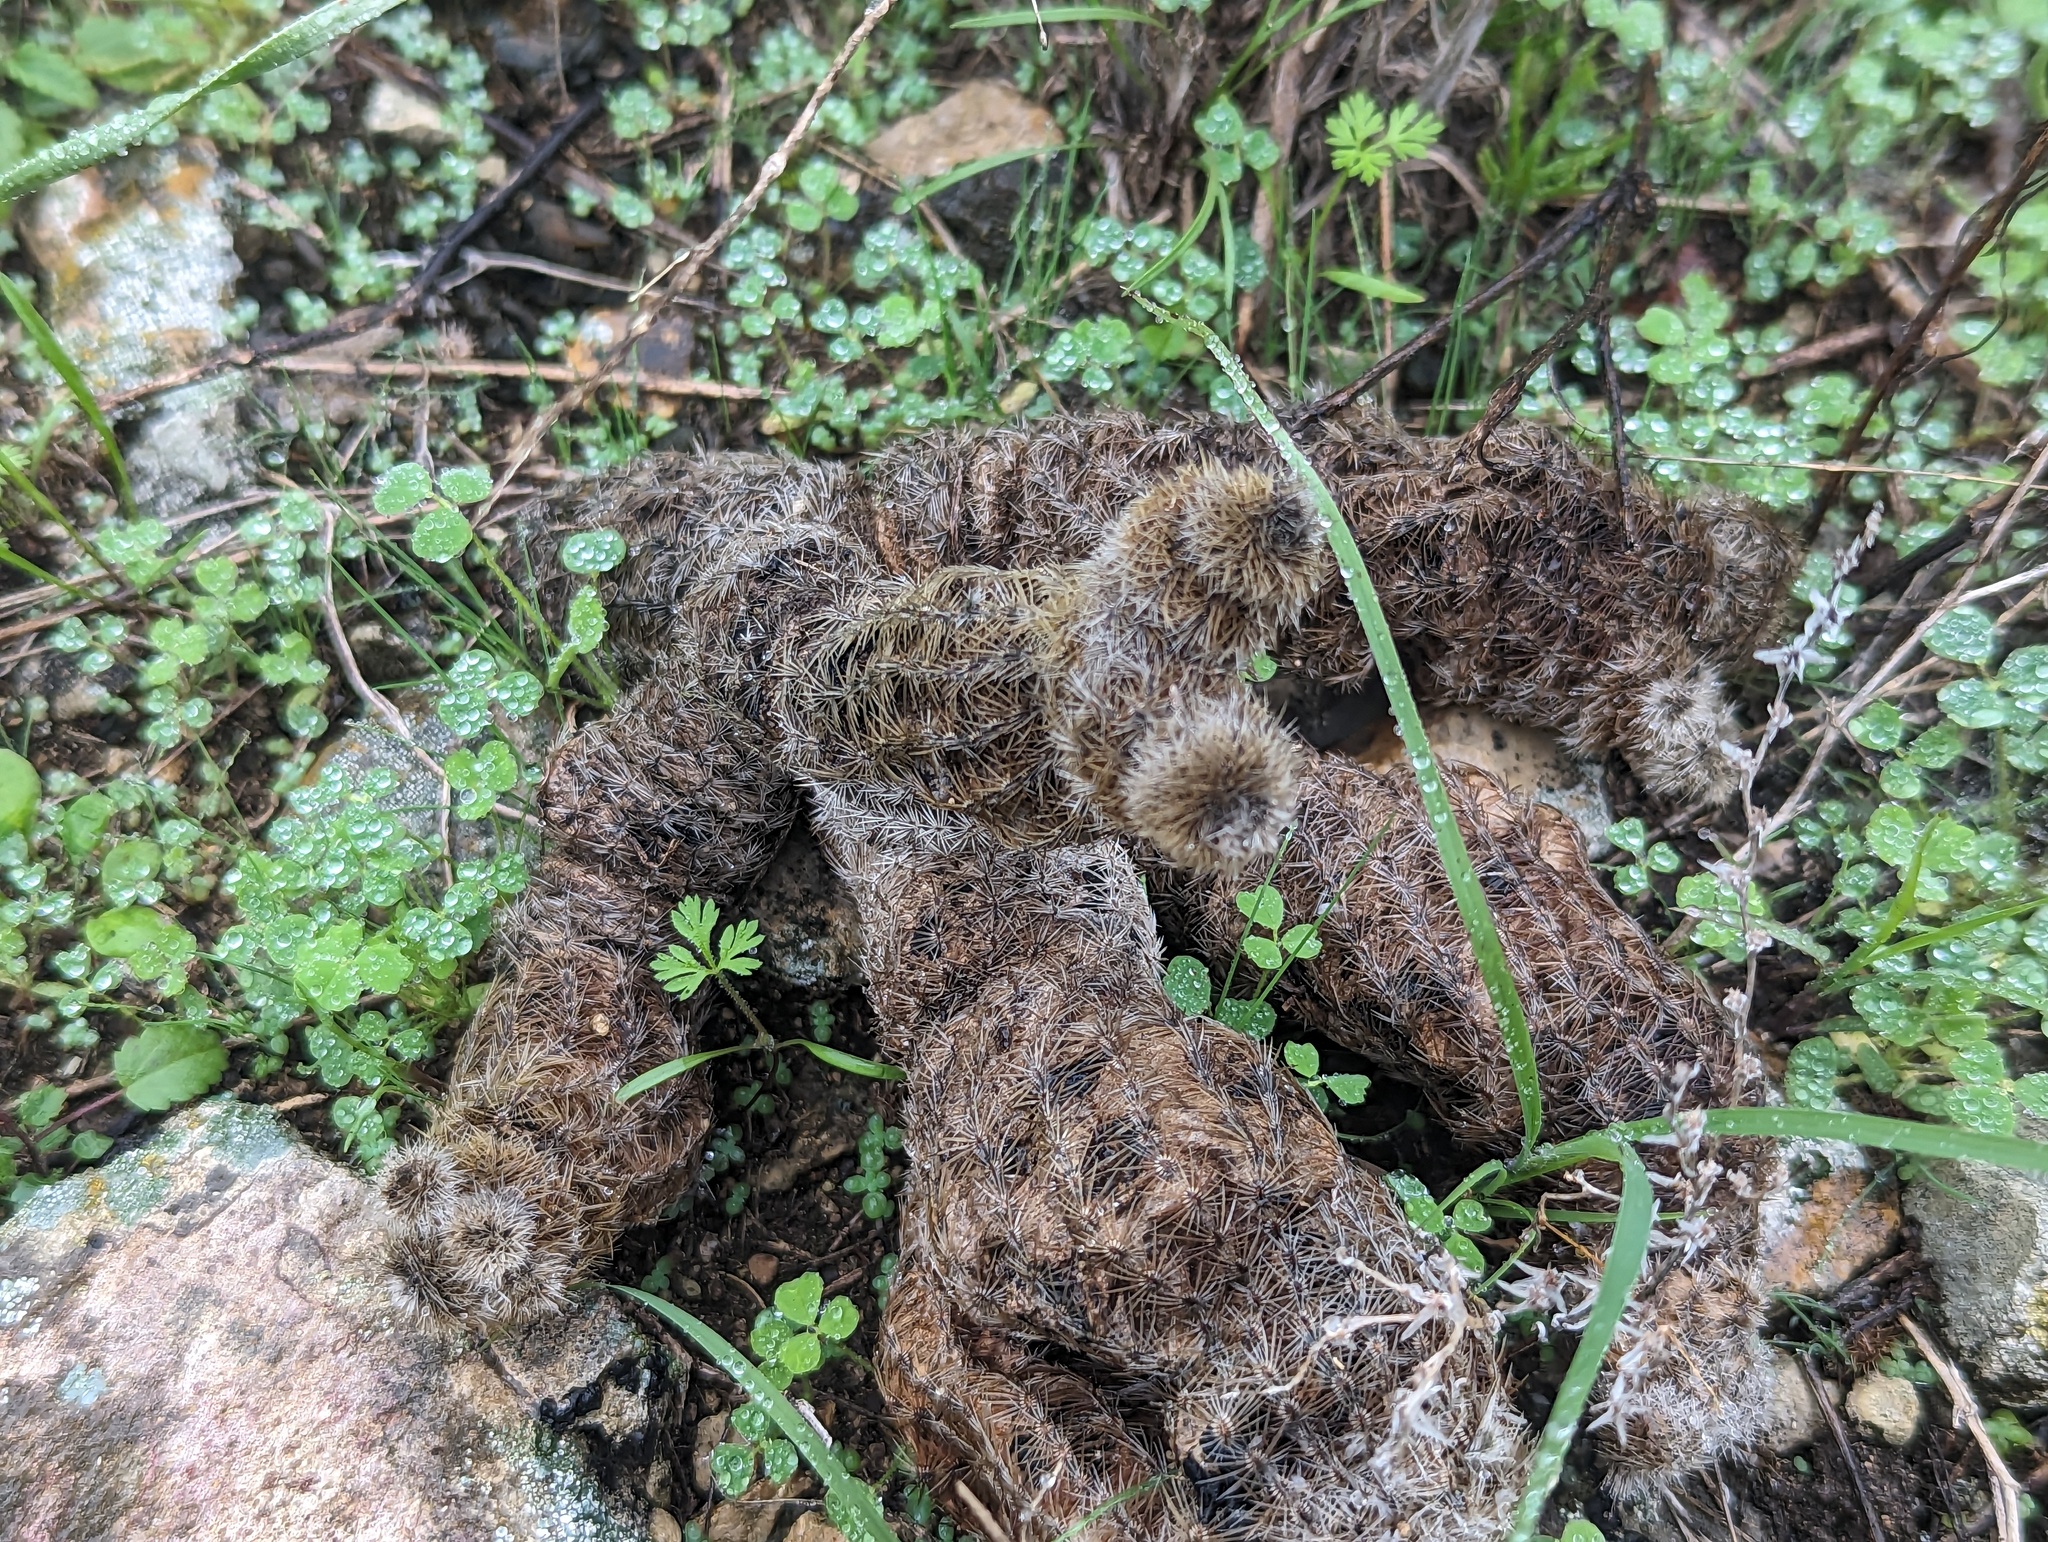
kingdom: Plantae
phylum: Tracheophyta
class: Magnoliopsida
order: Caryophyllales
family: Cactaceae
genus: Echinocereus
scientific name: Echinocereus reichenbachii
